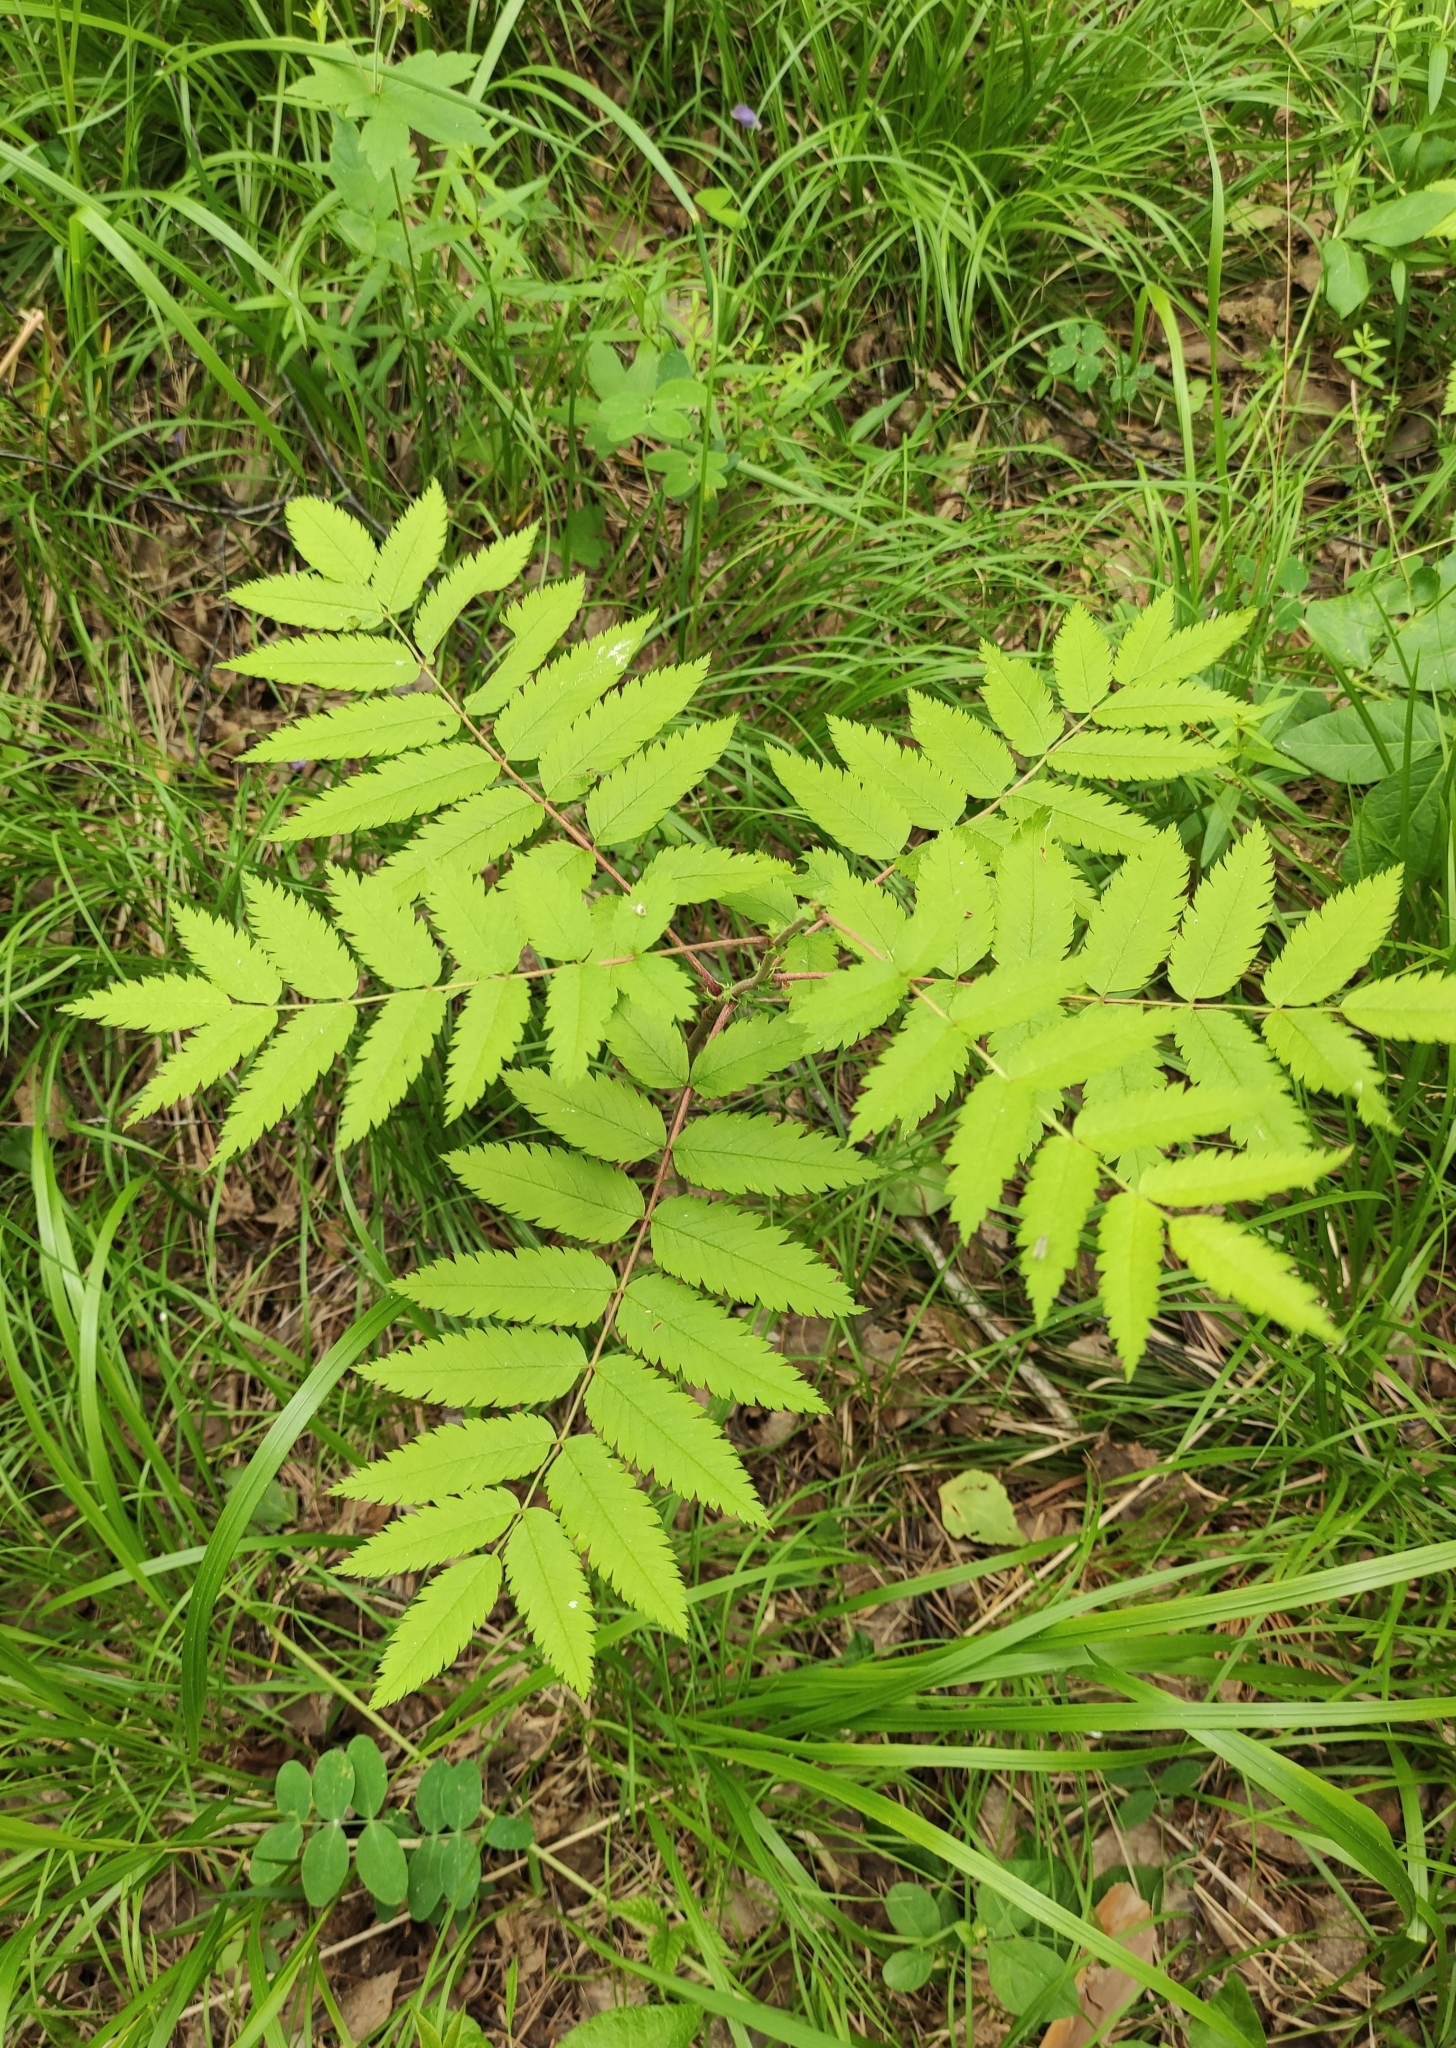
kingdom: Plantae
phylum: Tracheophyta
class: Magnoliopsida
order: Rosales
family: Rosaceae
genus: Sorbus
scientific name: Sorbus aucuparia
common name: Rowan
